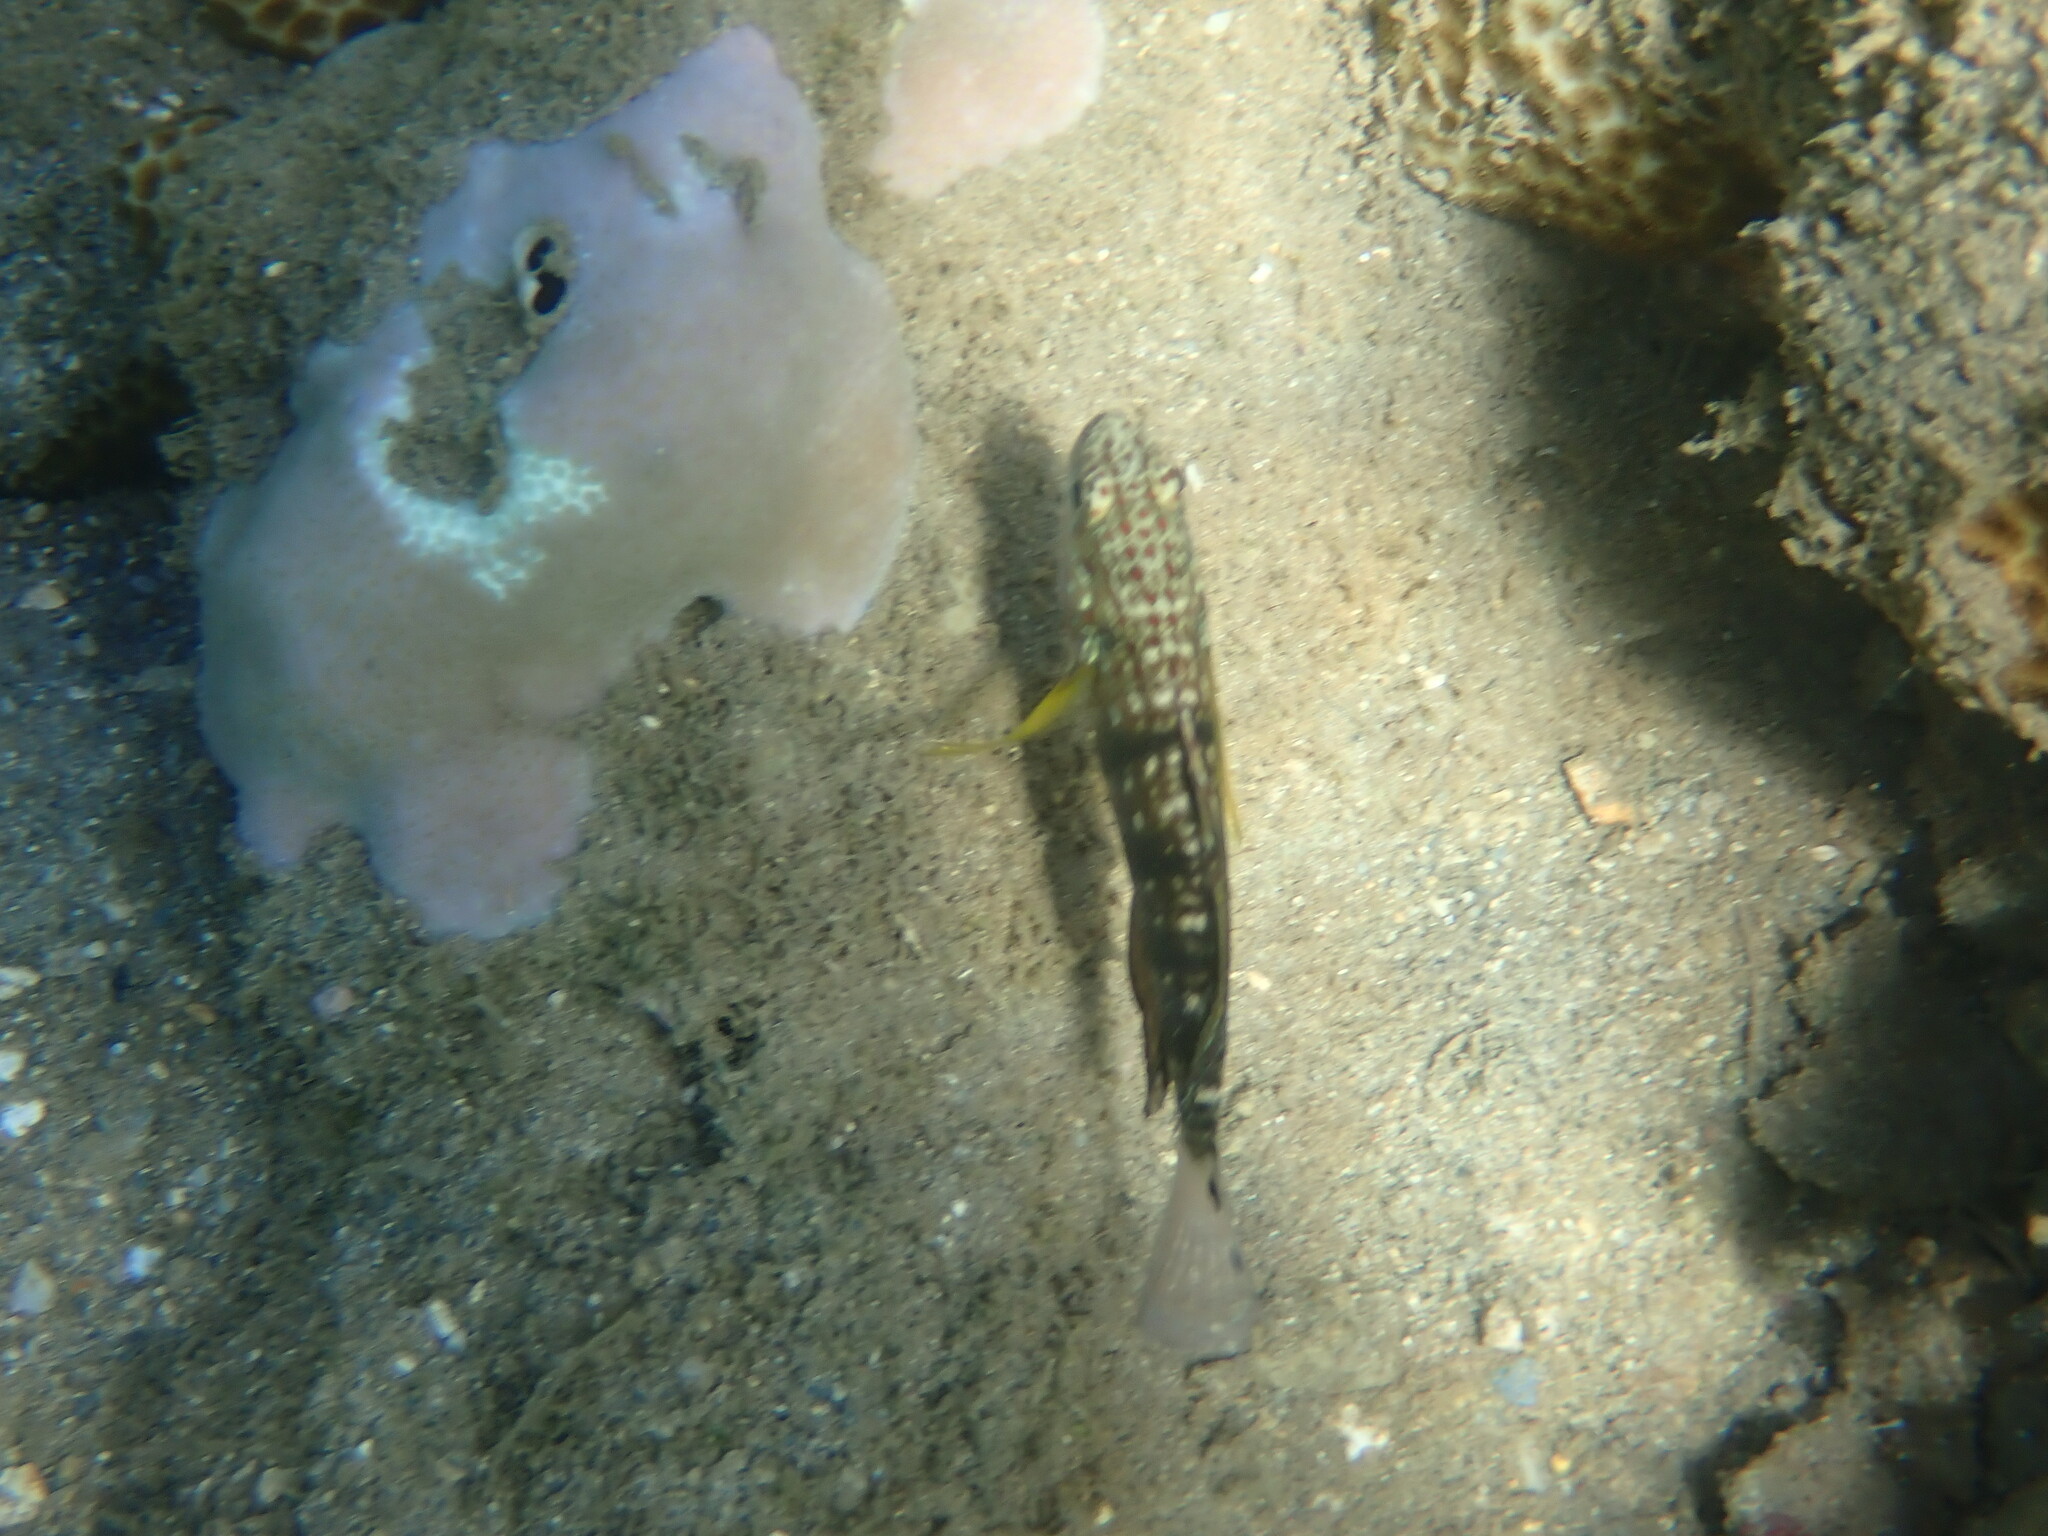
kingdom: Animalia
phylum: Chordata
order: Perciformes
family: Gobiidae
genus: Amblygobius
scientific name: Amblygobius phalaena
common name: Banded goby
